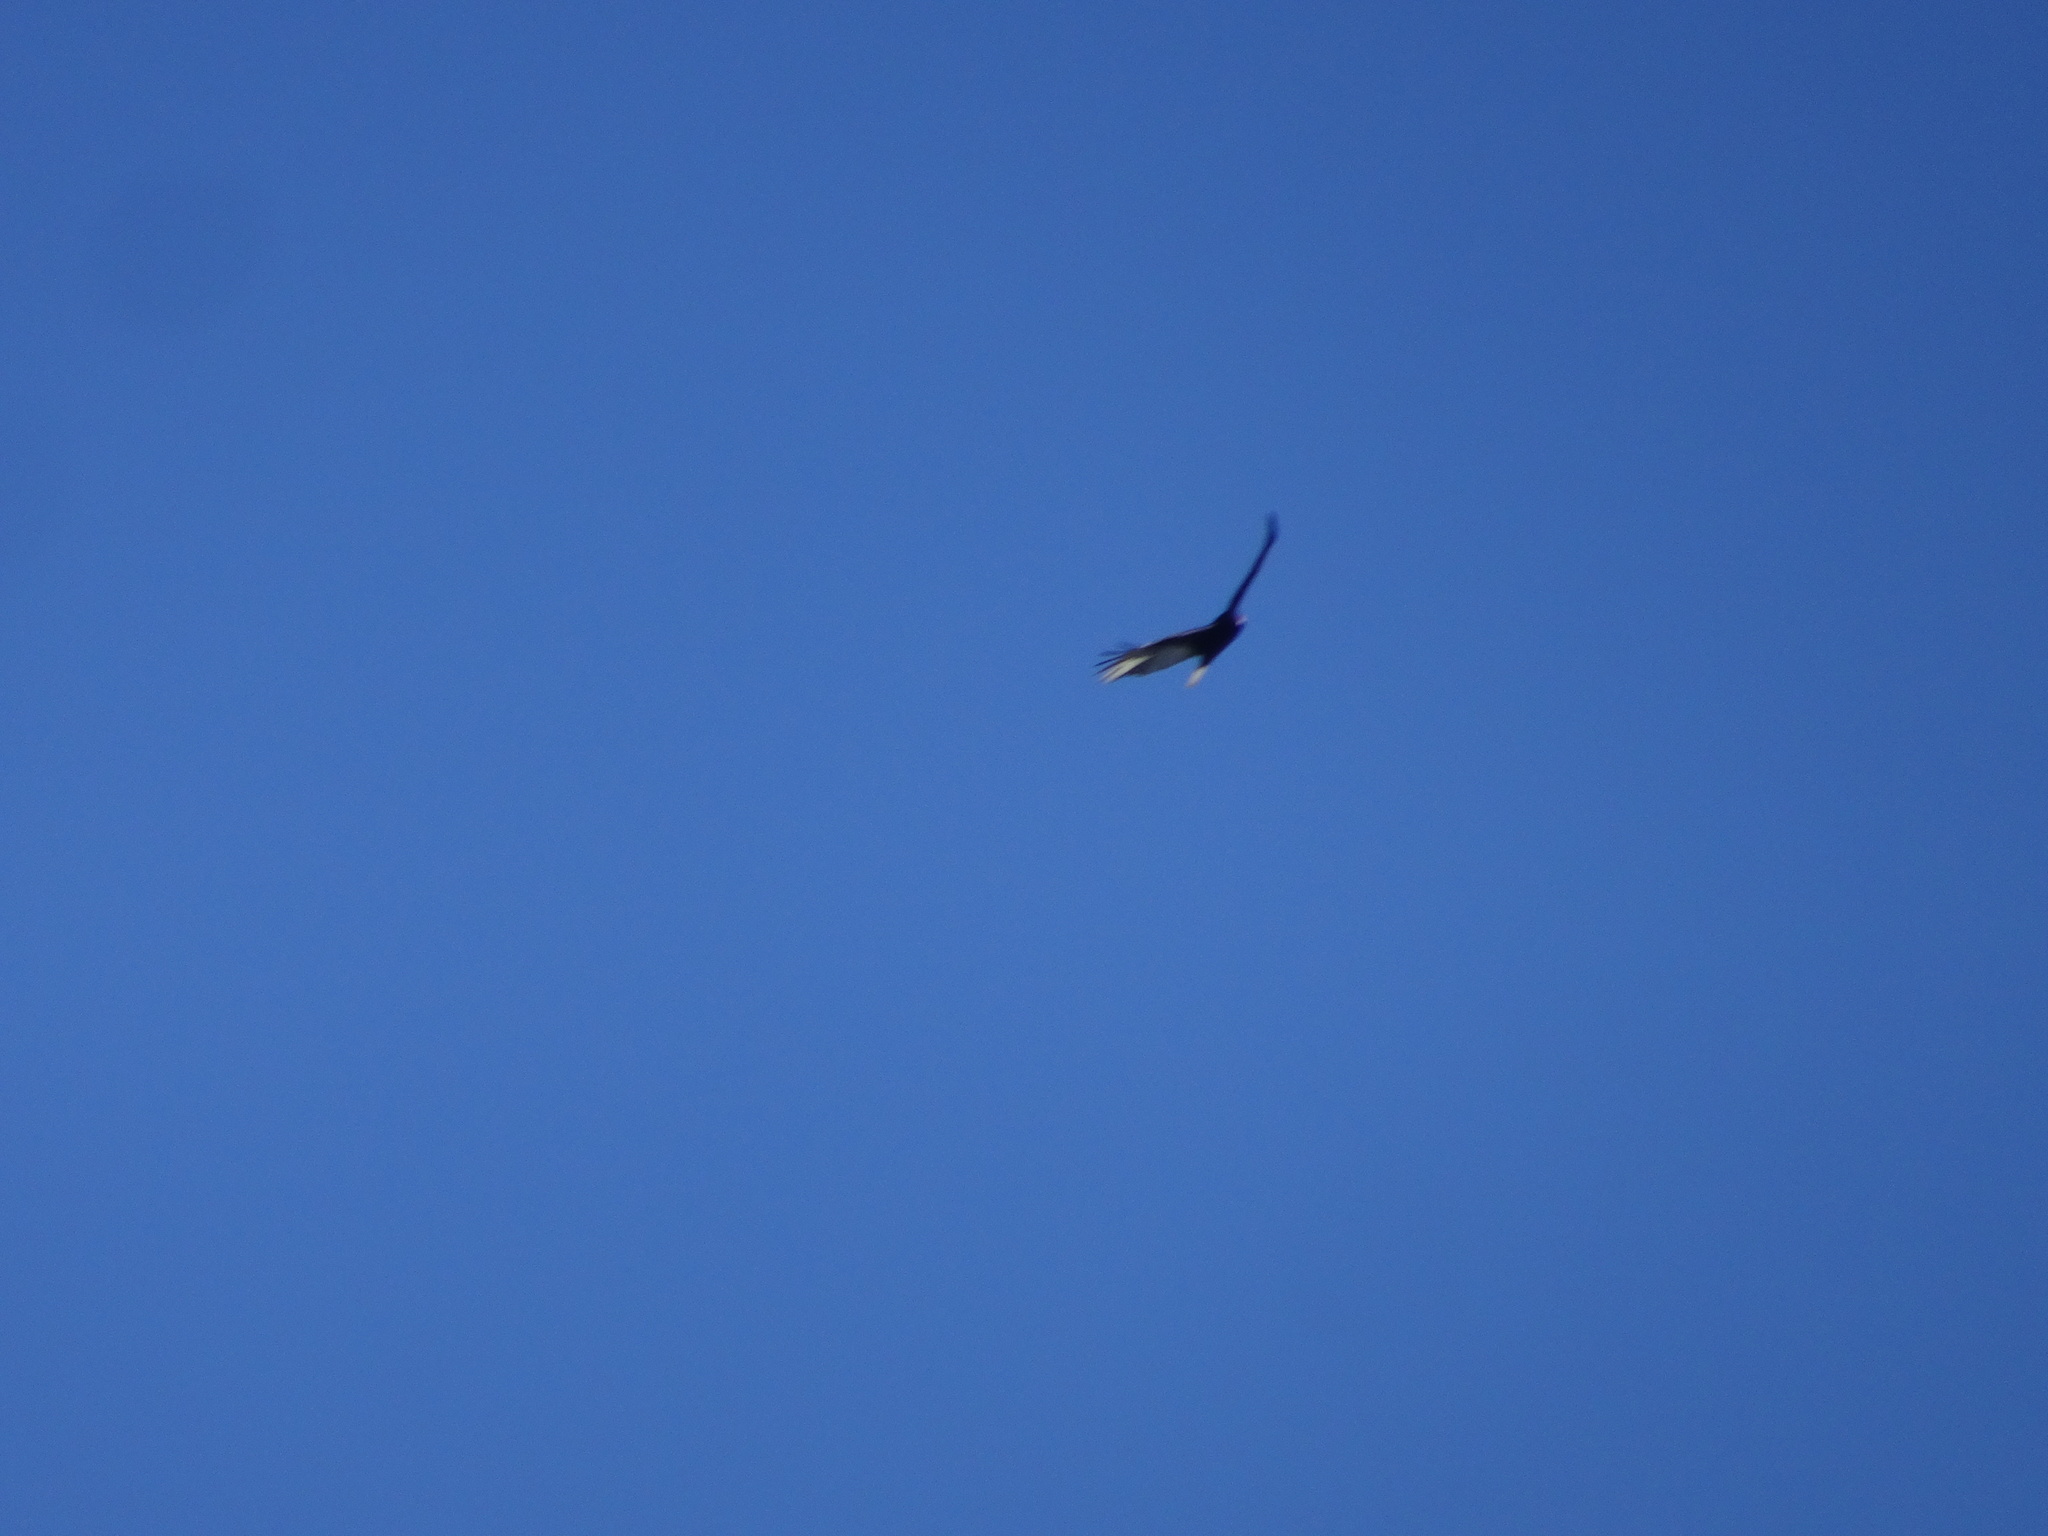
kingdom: Animalia
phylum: Chordata
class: Aves
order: Accipitriformes
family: Cathartidae
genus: Cathartes
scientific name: Cathartes aura
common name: Turkey vulture
